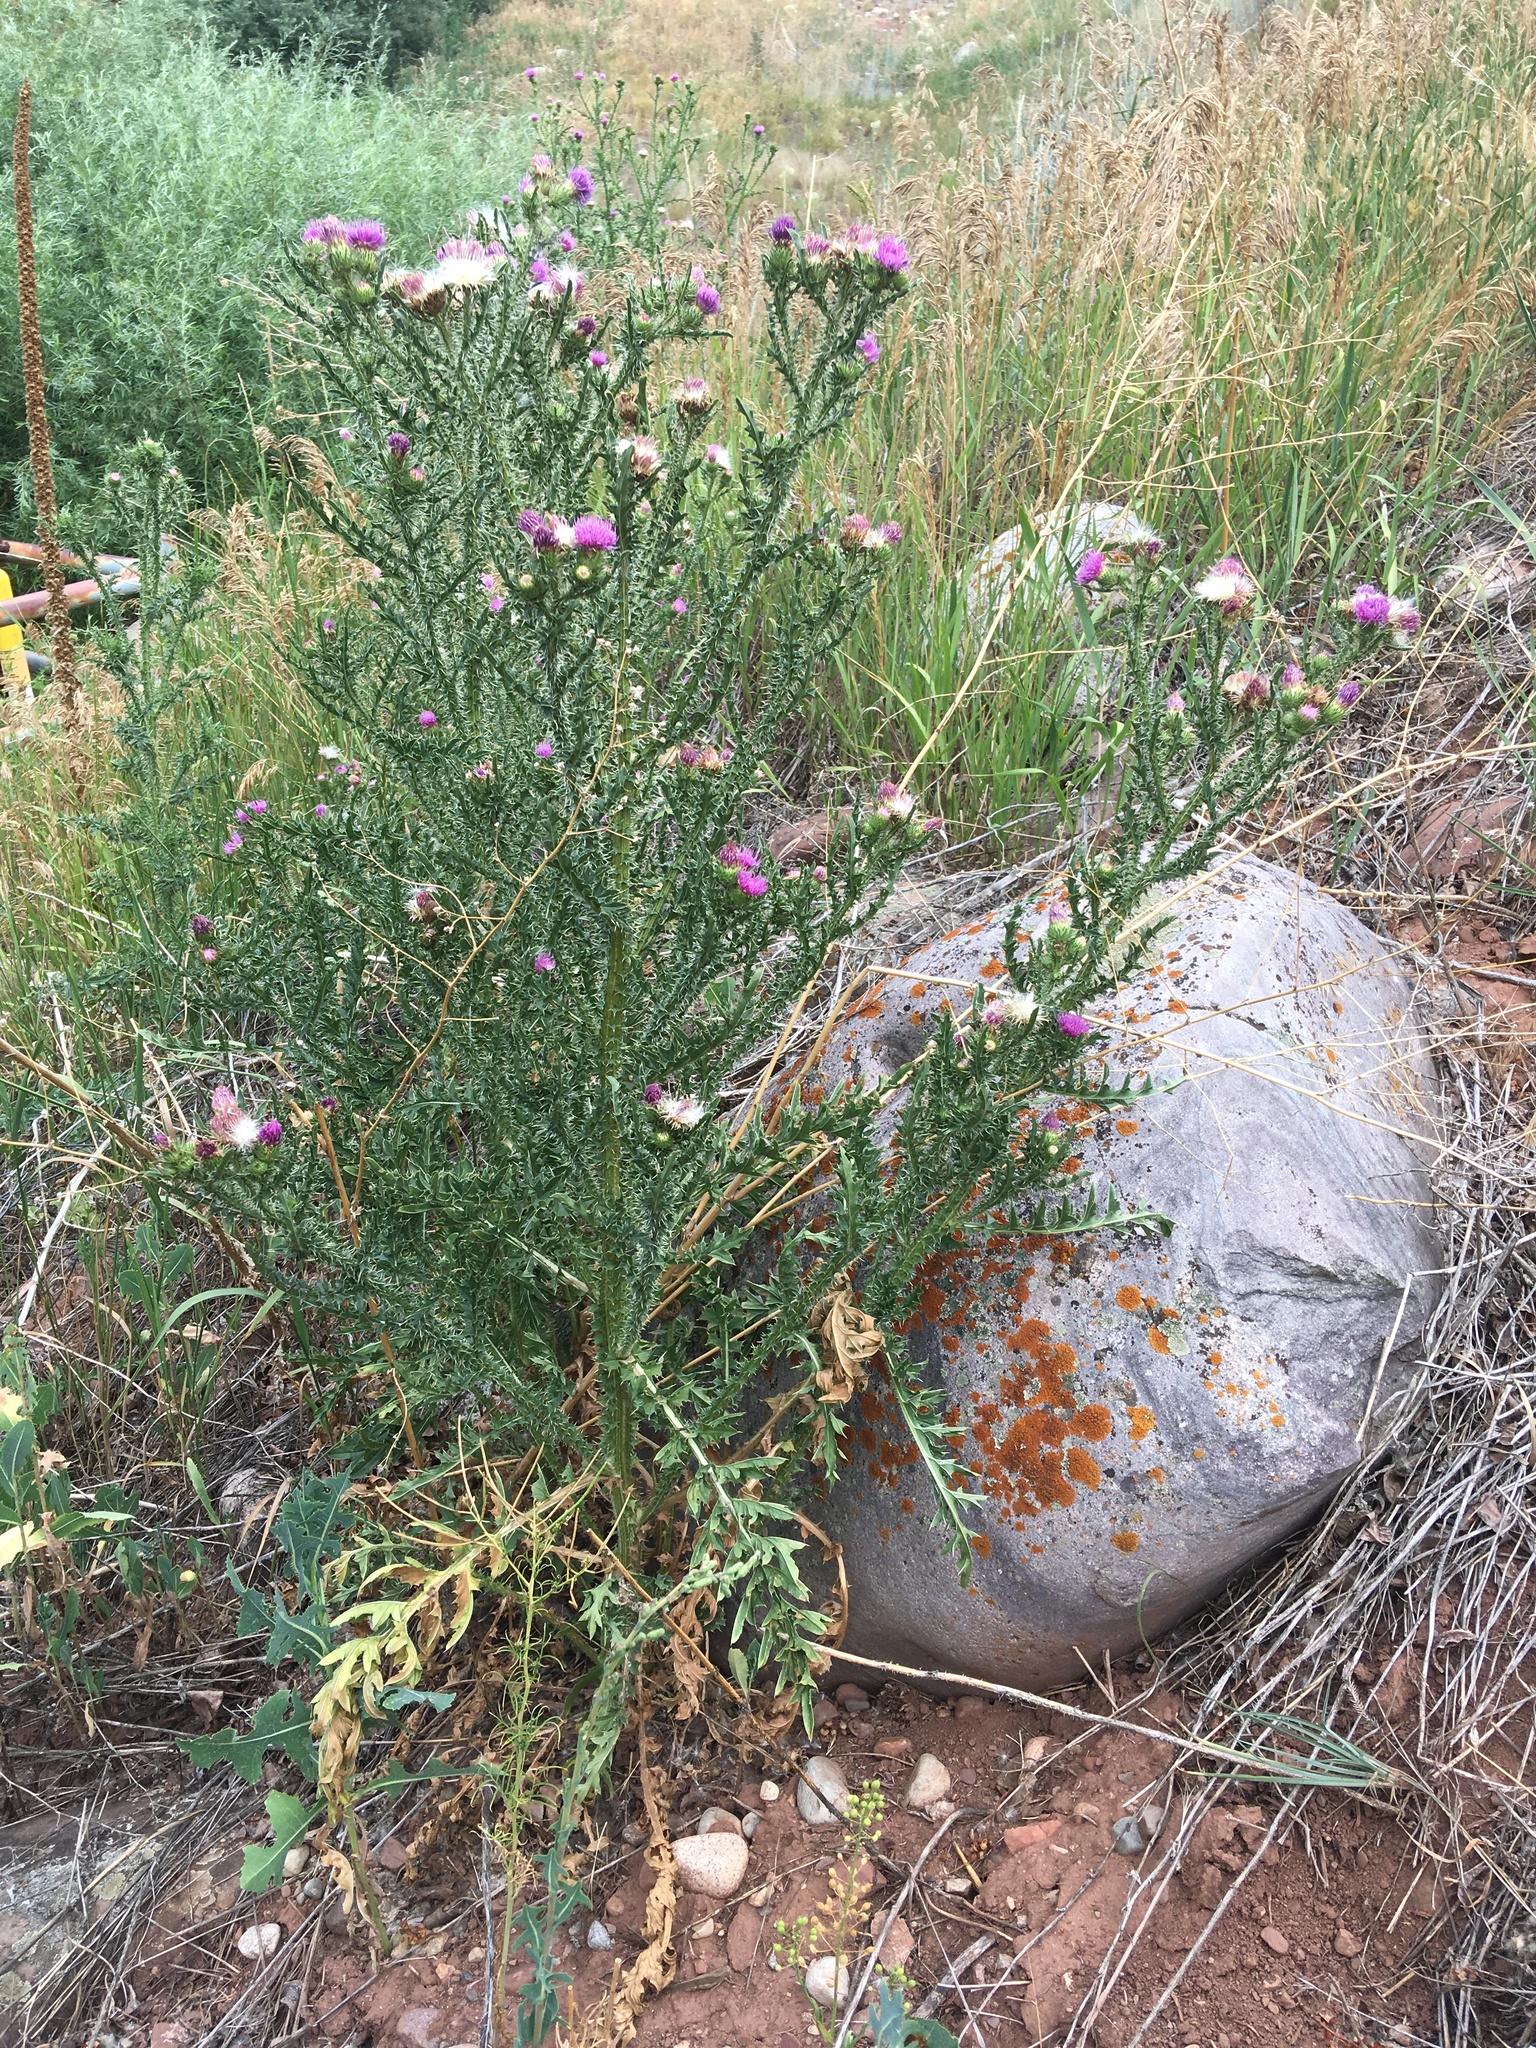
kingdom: Plantae
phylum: Tracheophyta
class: Magnoliopsida
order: Asterales
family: Asteraceae
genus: Carduus
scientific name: Carduus acanthoides
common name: Plumeless thistle
